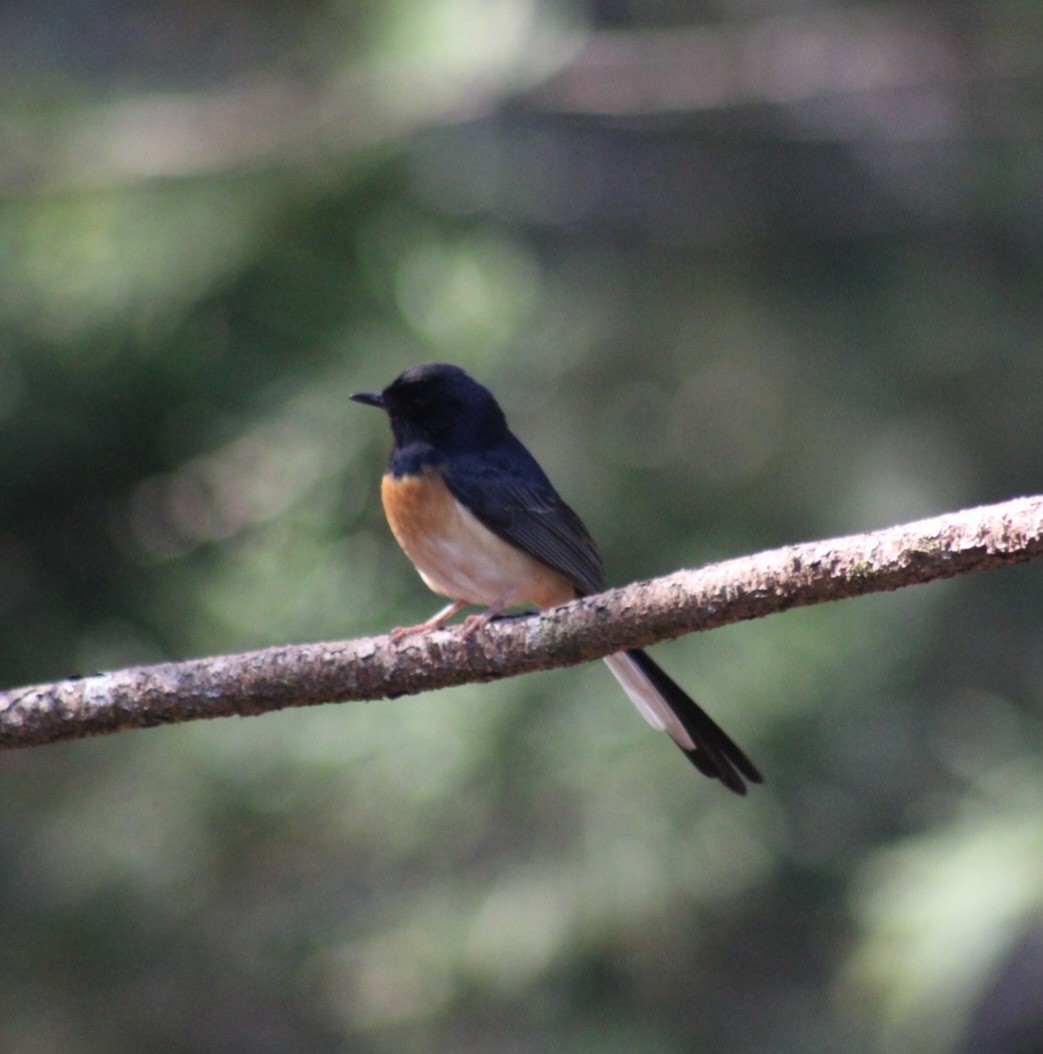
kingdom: Animalia
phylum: Chordata
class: Aves
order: Passeriformes
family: Muscicapidae
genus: Copsychus
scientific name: Copsychus malabaricus
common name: White-rumped shama
